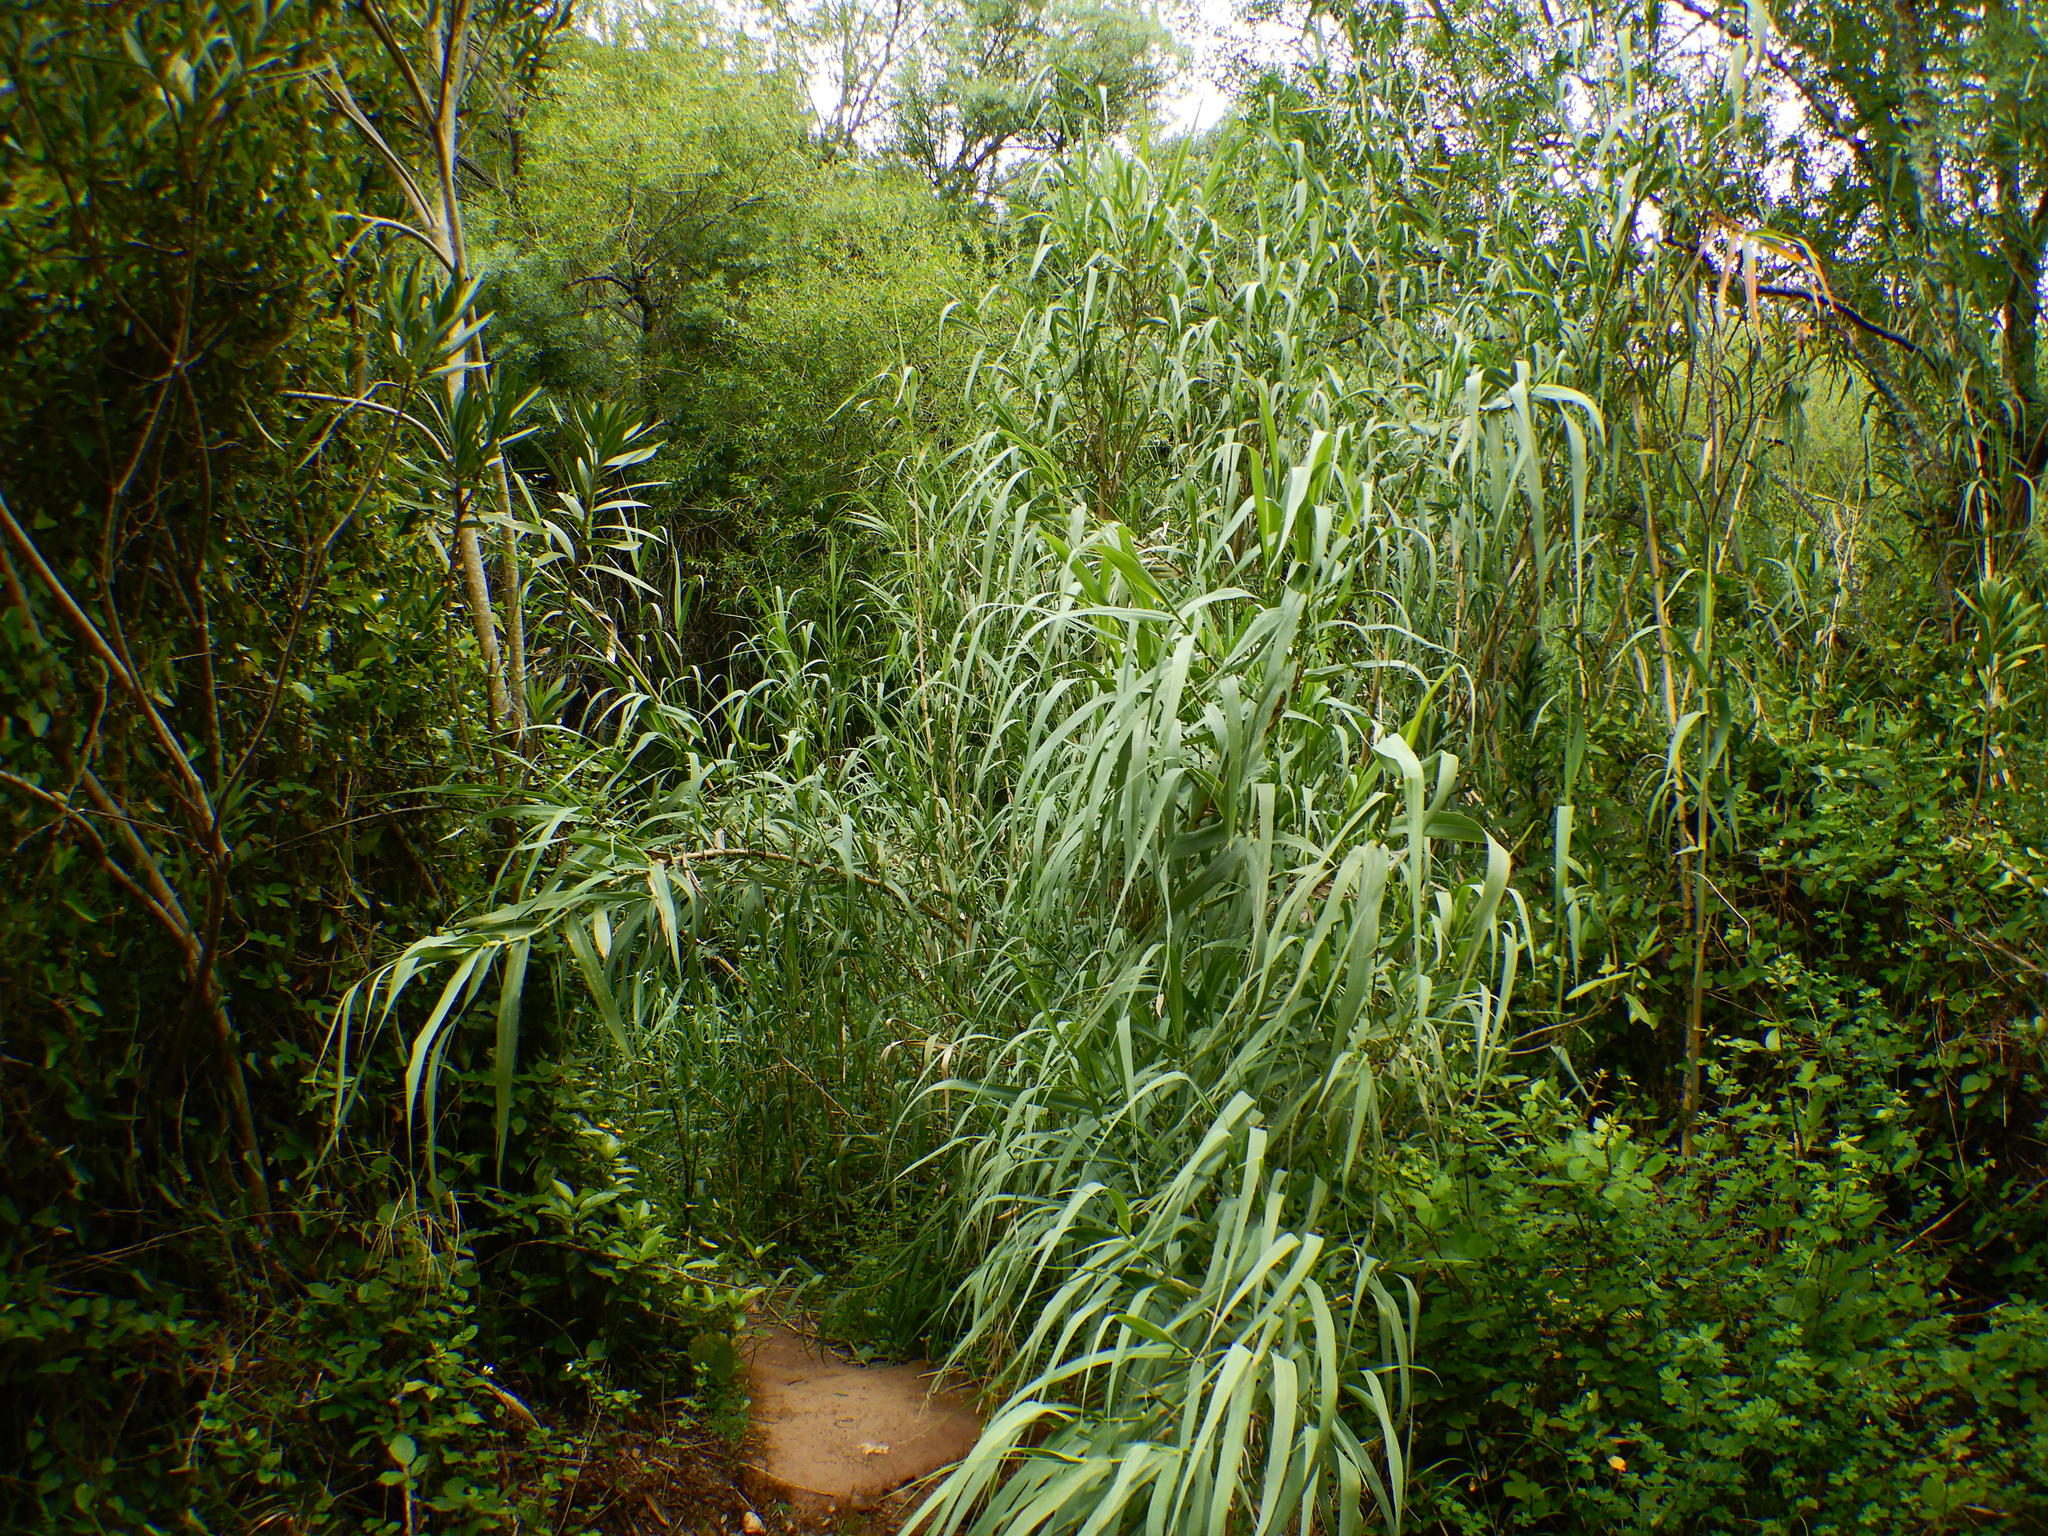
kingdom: Plantae
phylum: Tracheophyta
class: Liliopsida
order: Poales
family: Poaceae
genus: Arundo
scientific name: Arundo donax
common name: Giant reed
